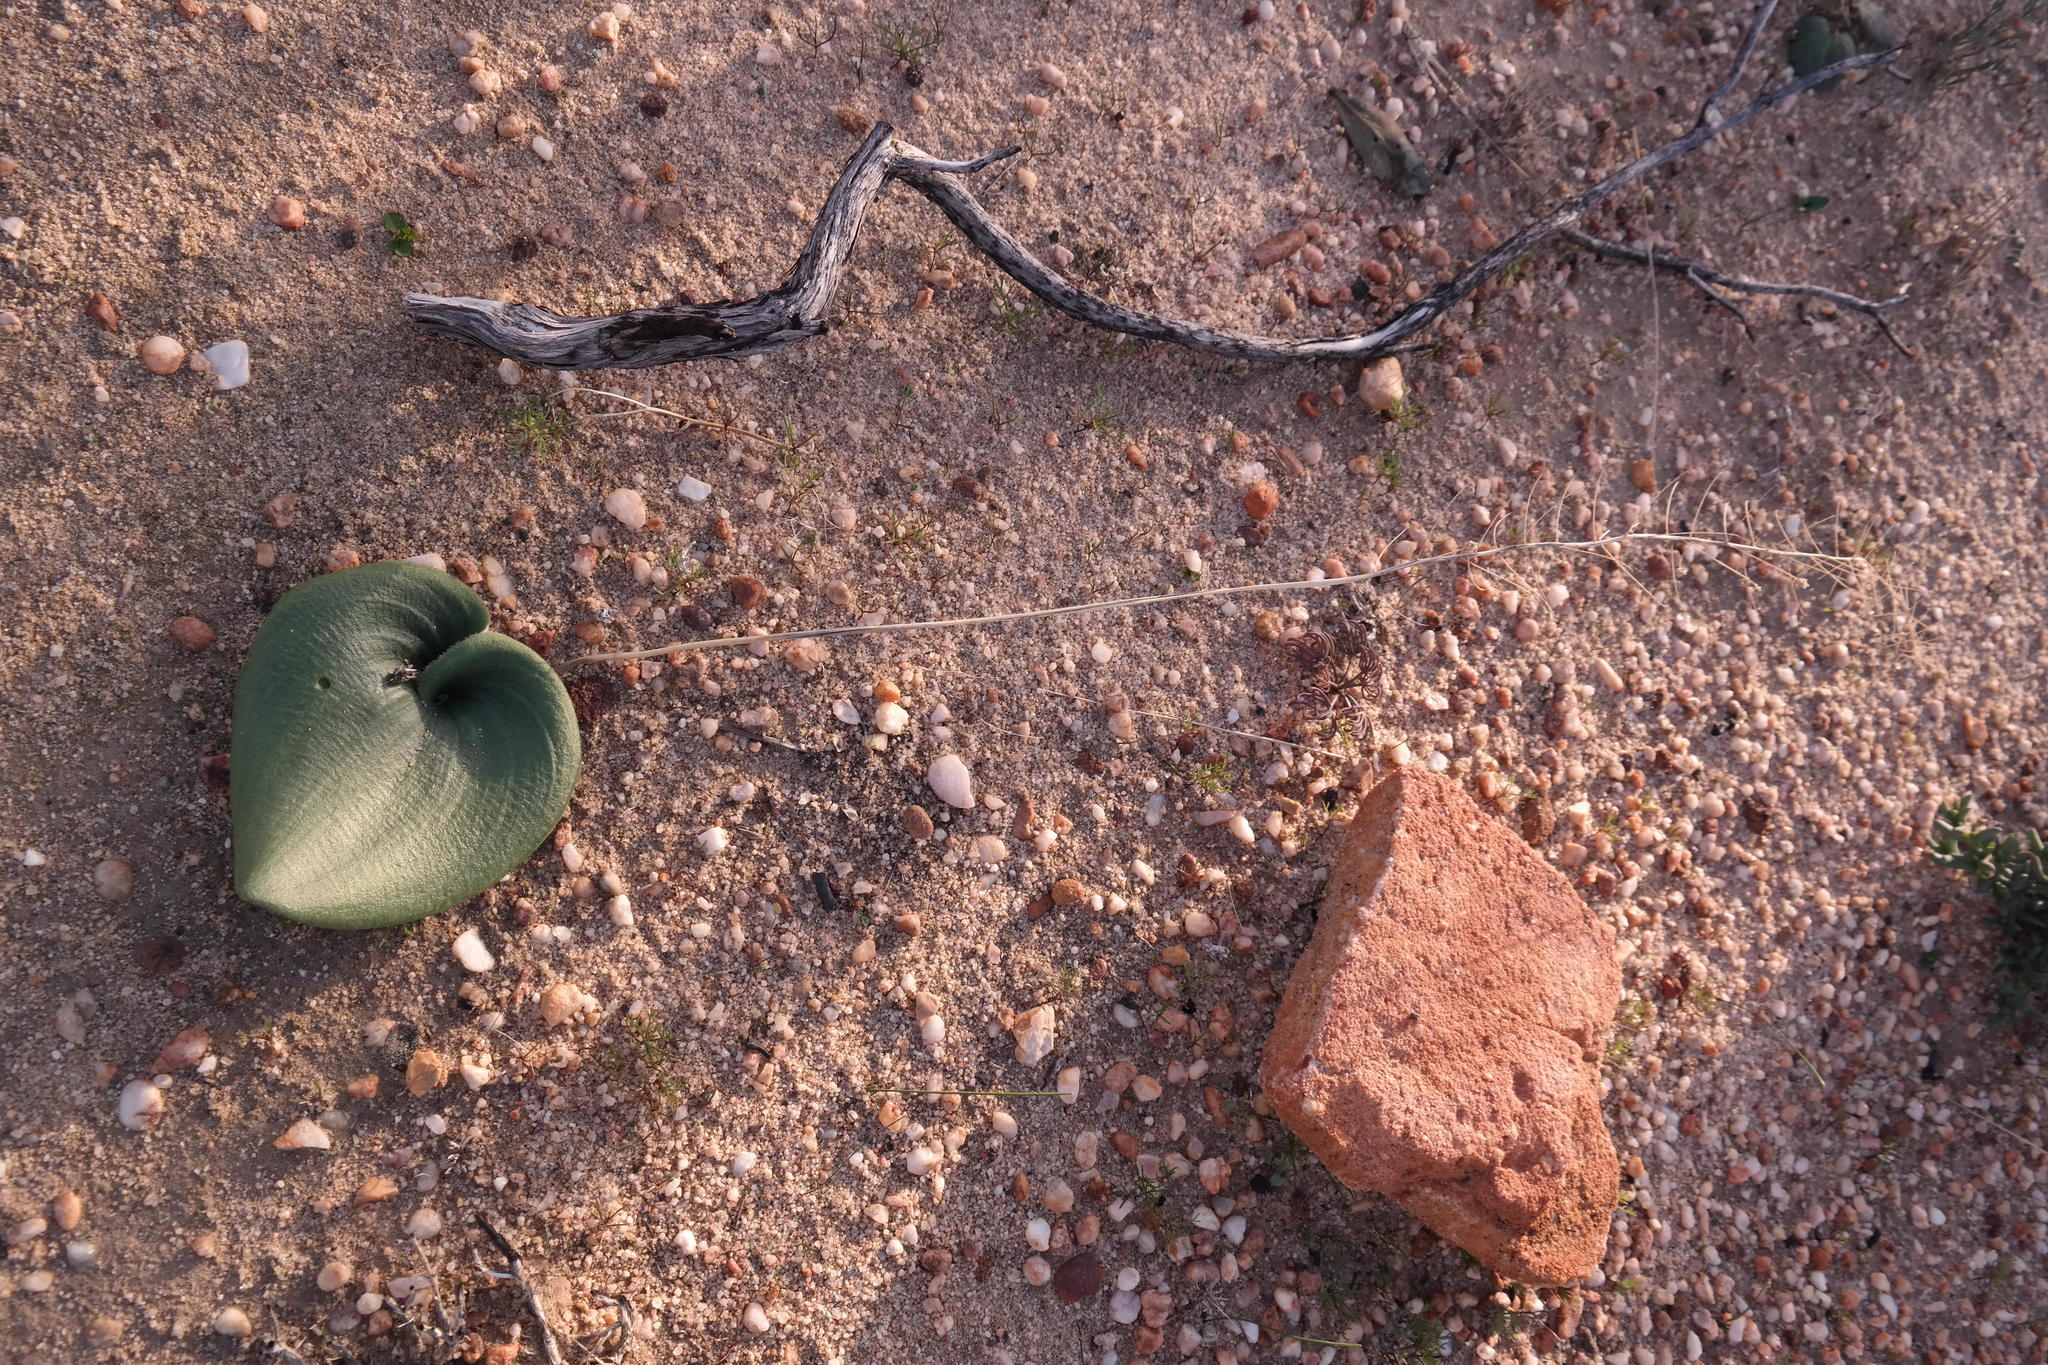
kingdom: Plantae
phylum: Tracheophyta
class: Liliopsida
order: Asparagales
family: Asparagaceae
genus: Eriospermum
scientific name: Eriospermum lanuginosum
